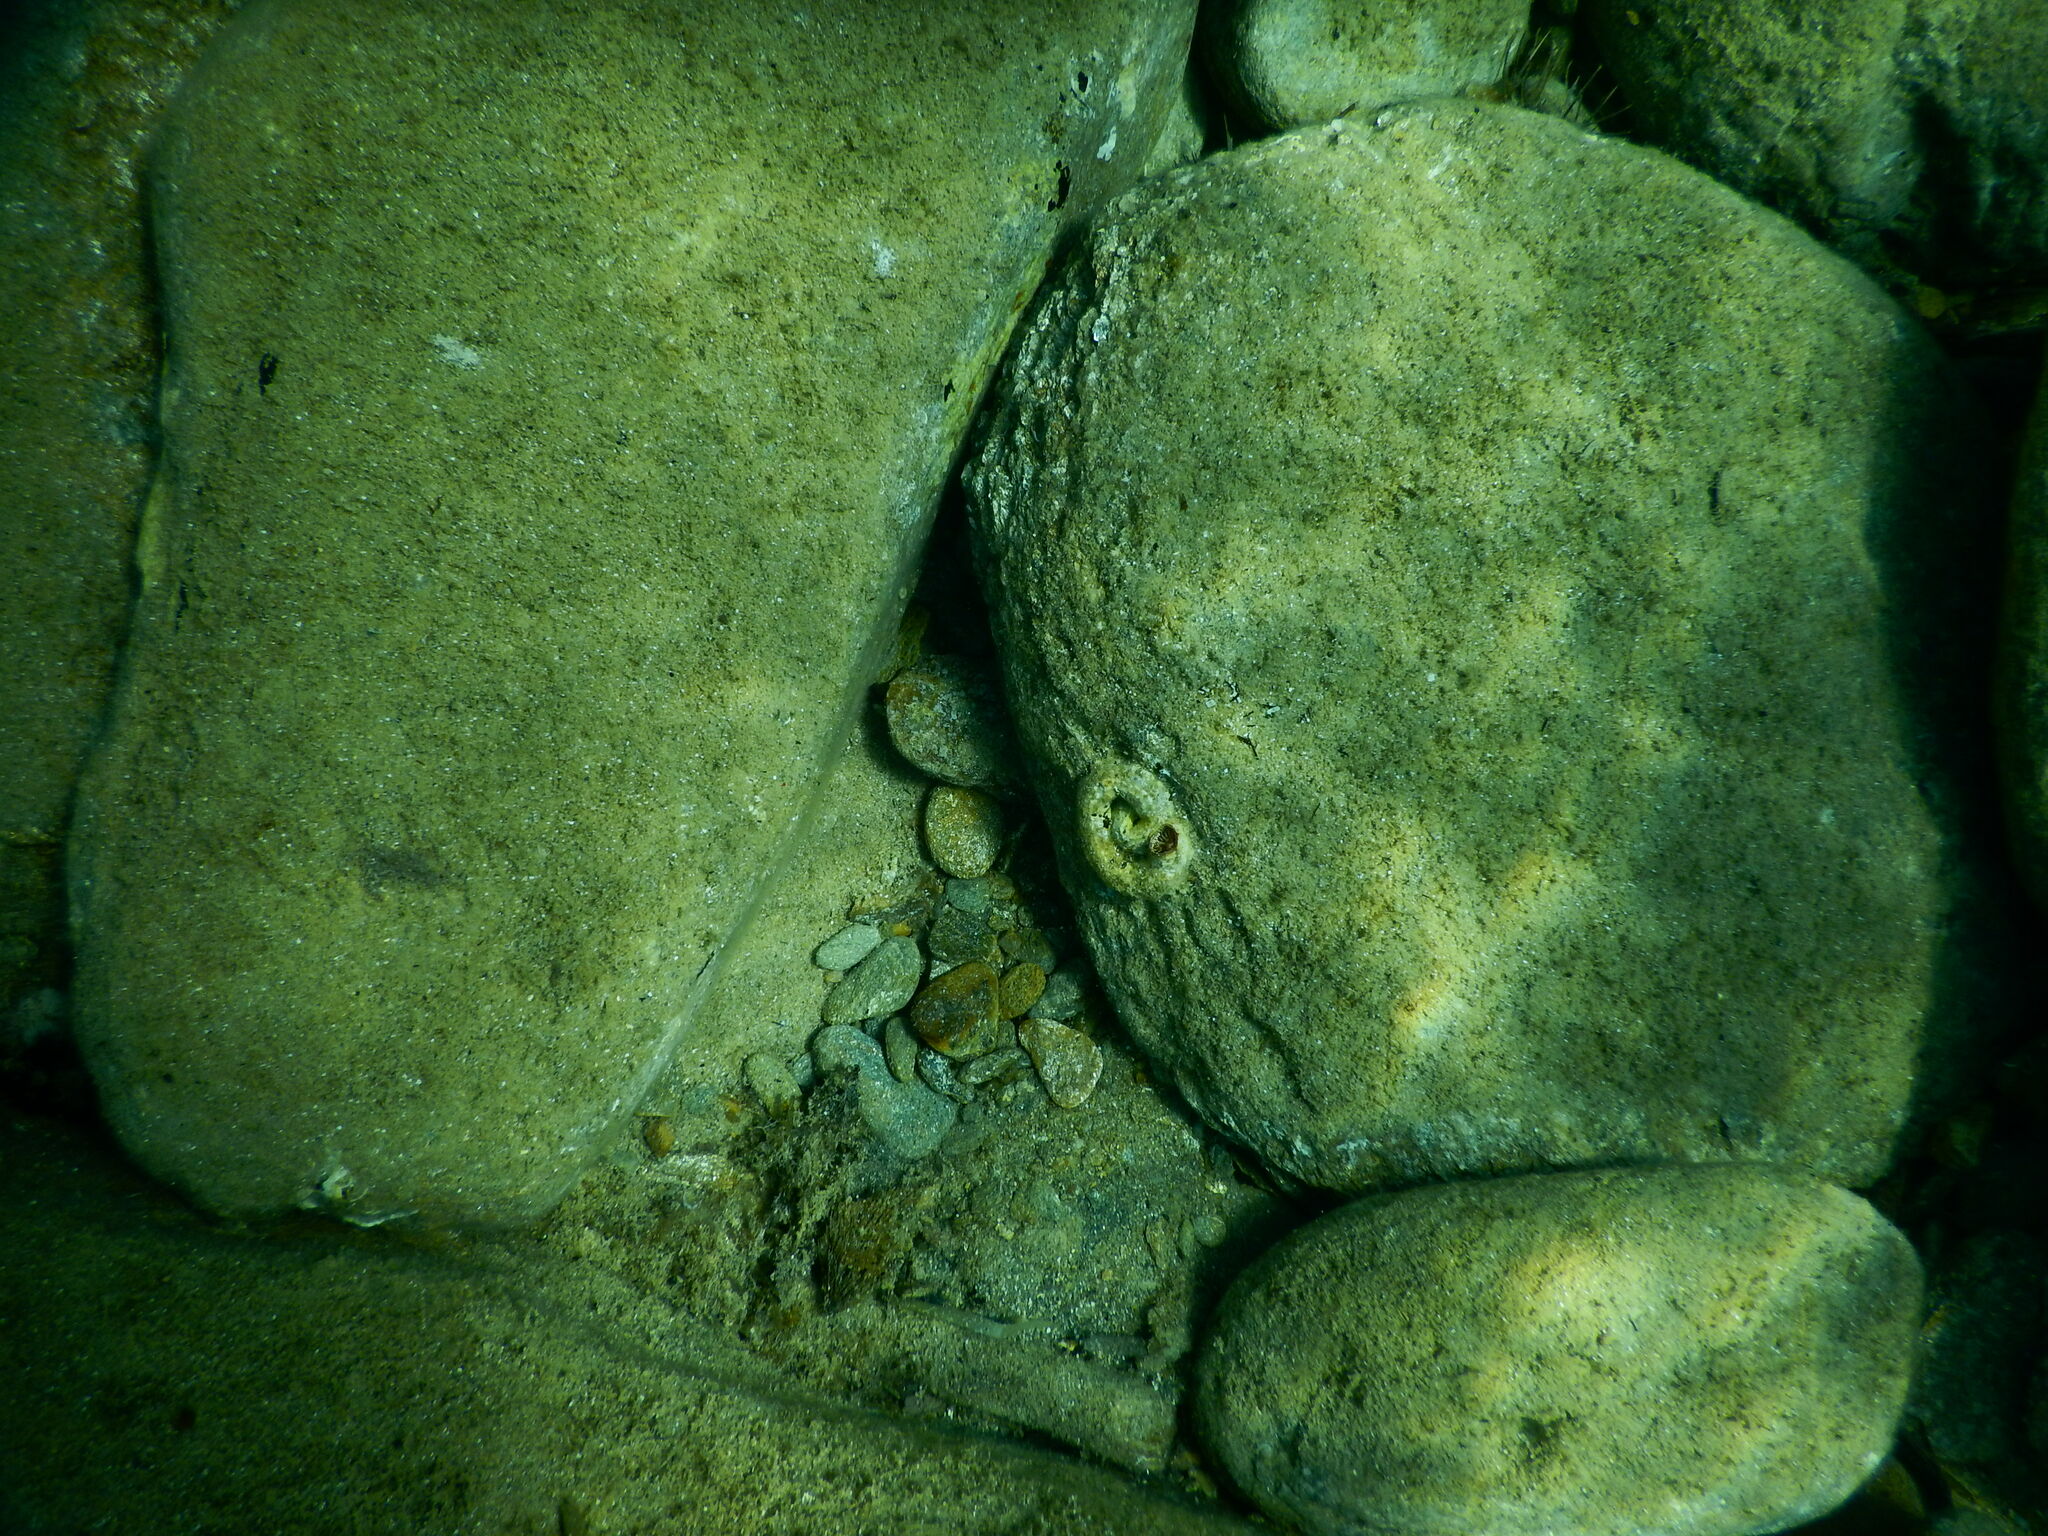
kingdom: Animalia
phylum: Mollusca
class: Gastropoda
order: Littorinimorpha
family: Vermetidae
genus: Thylacodes
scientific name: Thylacodes arenarius
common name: Giant worm shell
